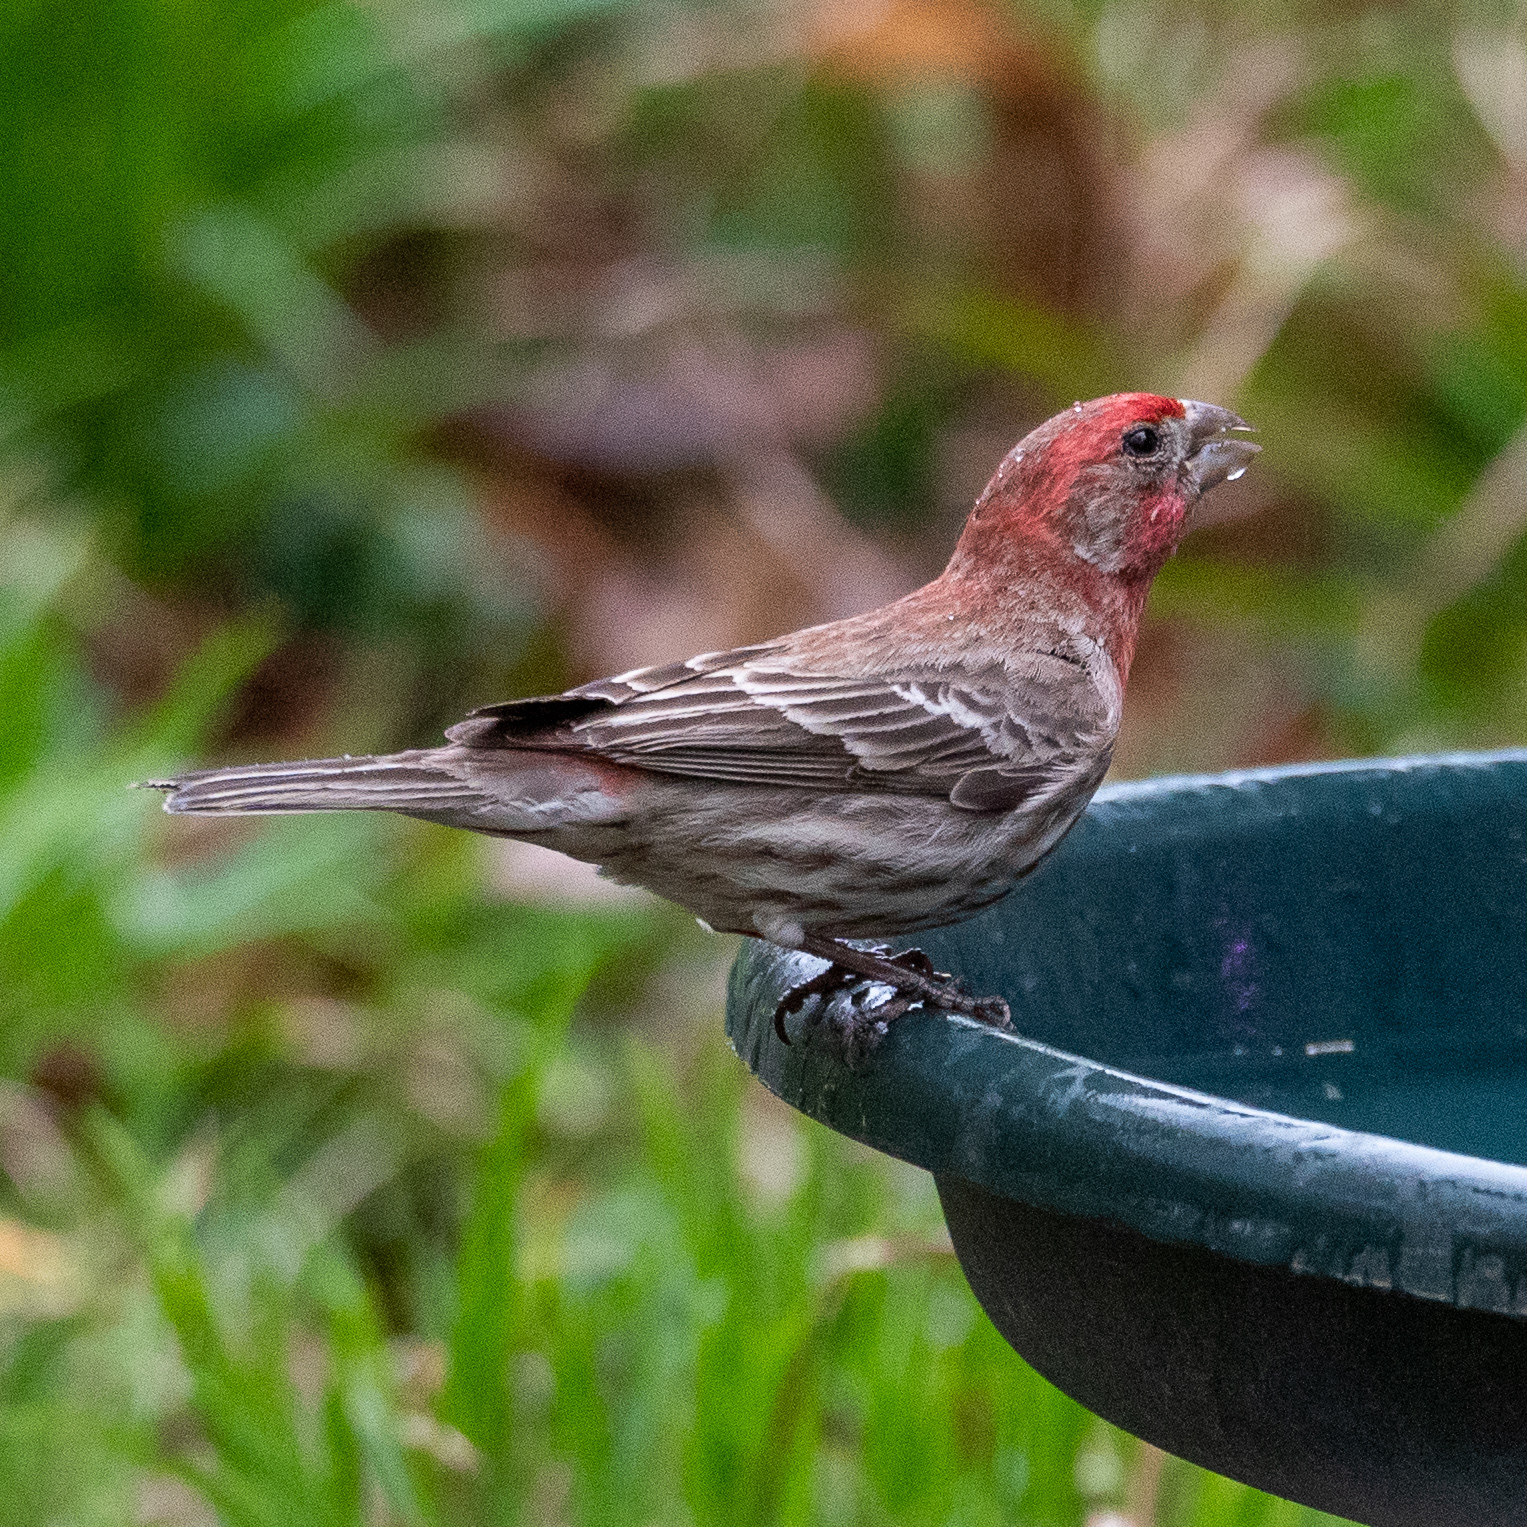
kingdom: Animalia
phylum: Chordata
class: Aves
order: Passeriformes
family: Fringillidae
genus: Haemorhous
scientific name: Haemorhous mexicanus
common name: House finch
